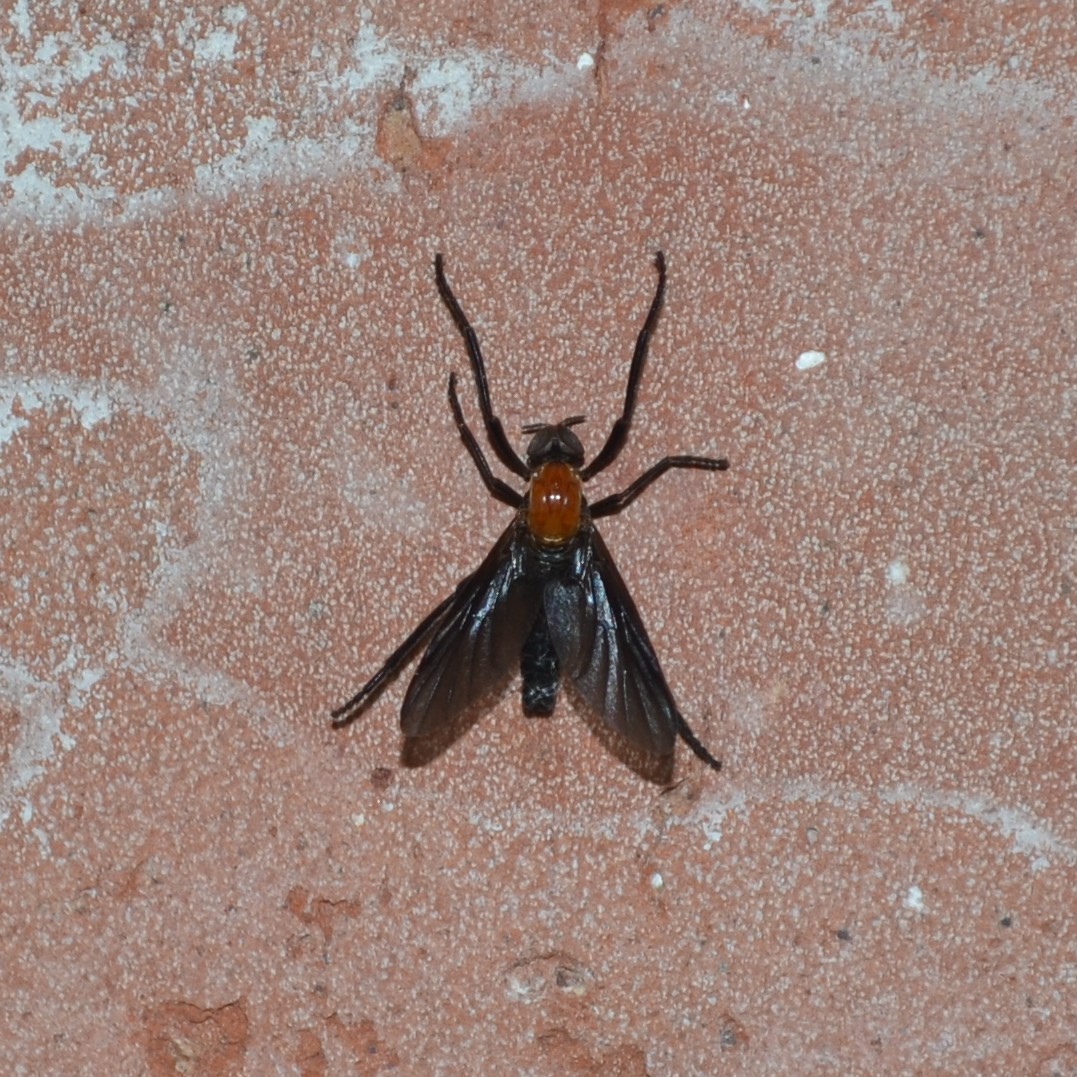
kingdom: Animalia
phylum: Arthropoda
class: Insecta
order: Diptera
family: Bibionidae
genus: Plecia
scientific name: Plecia nearctica
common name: March fly
